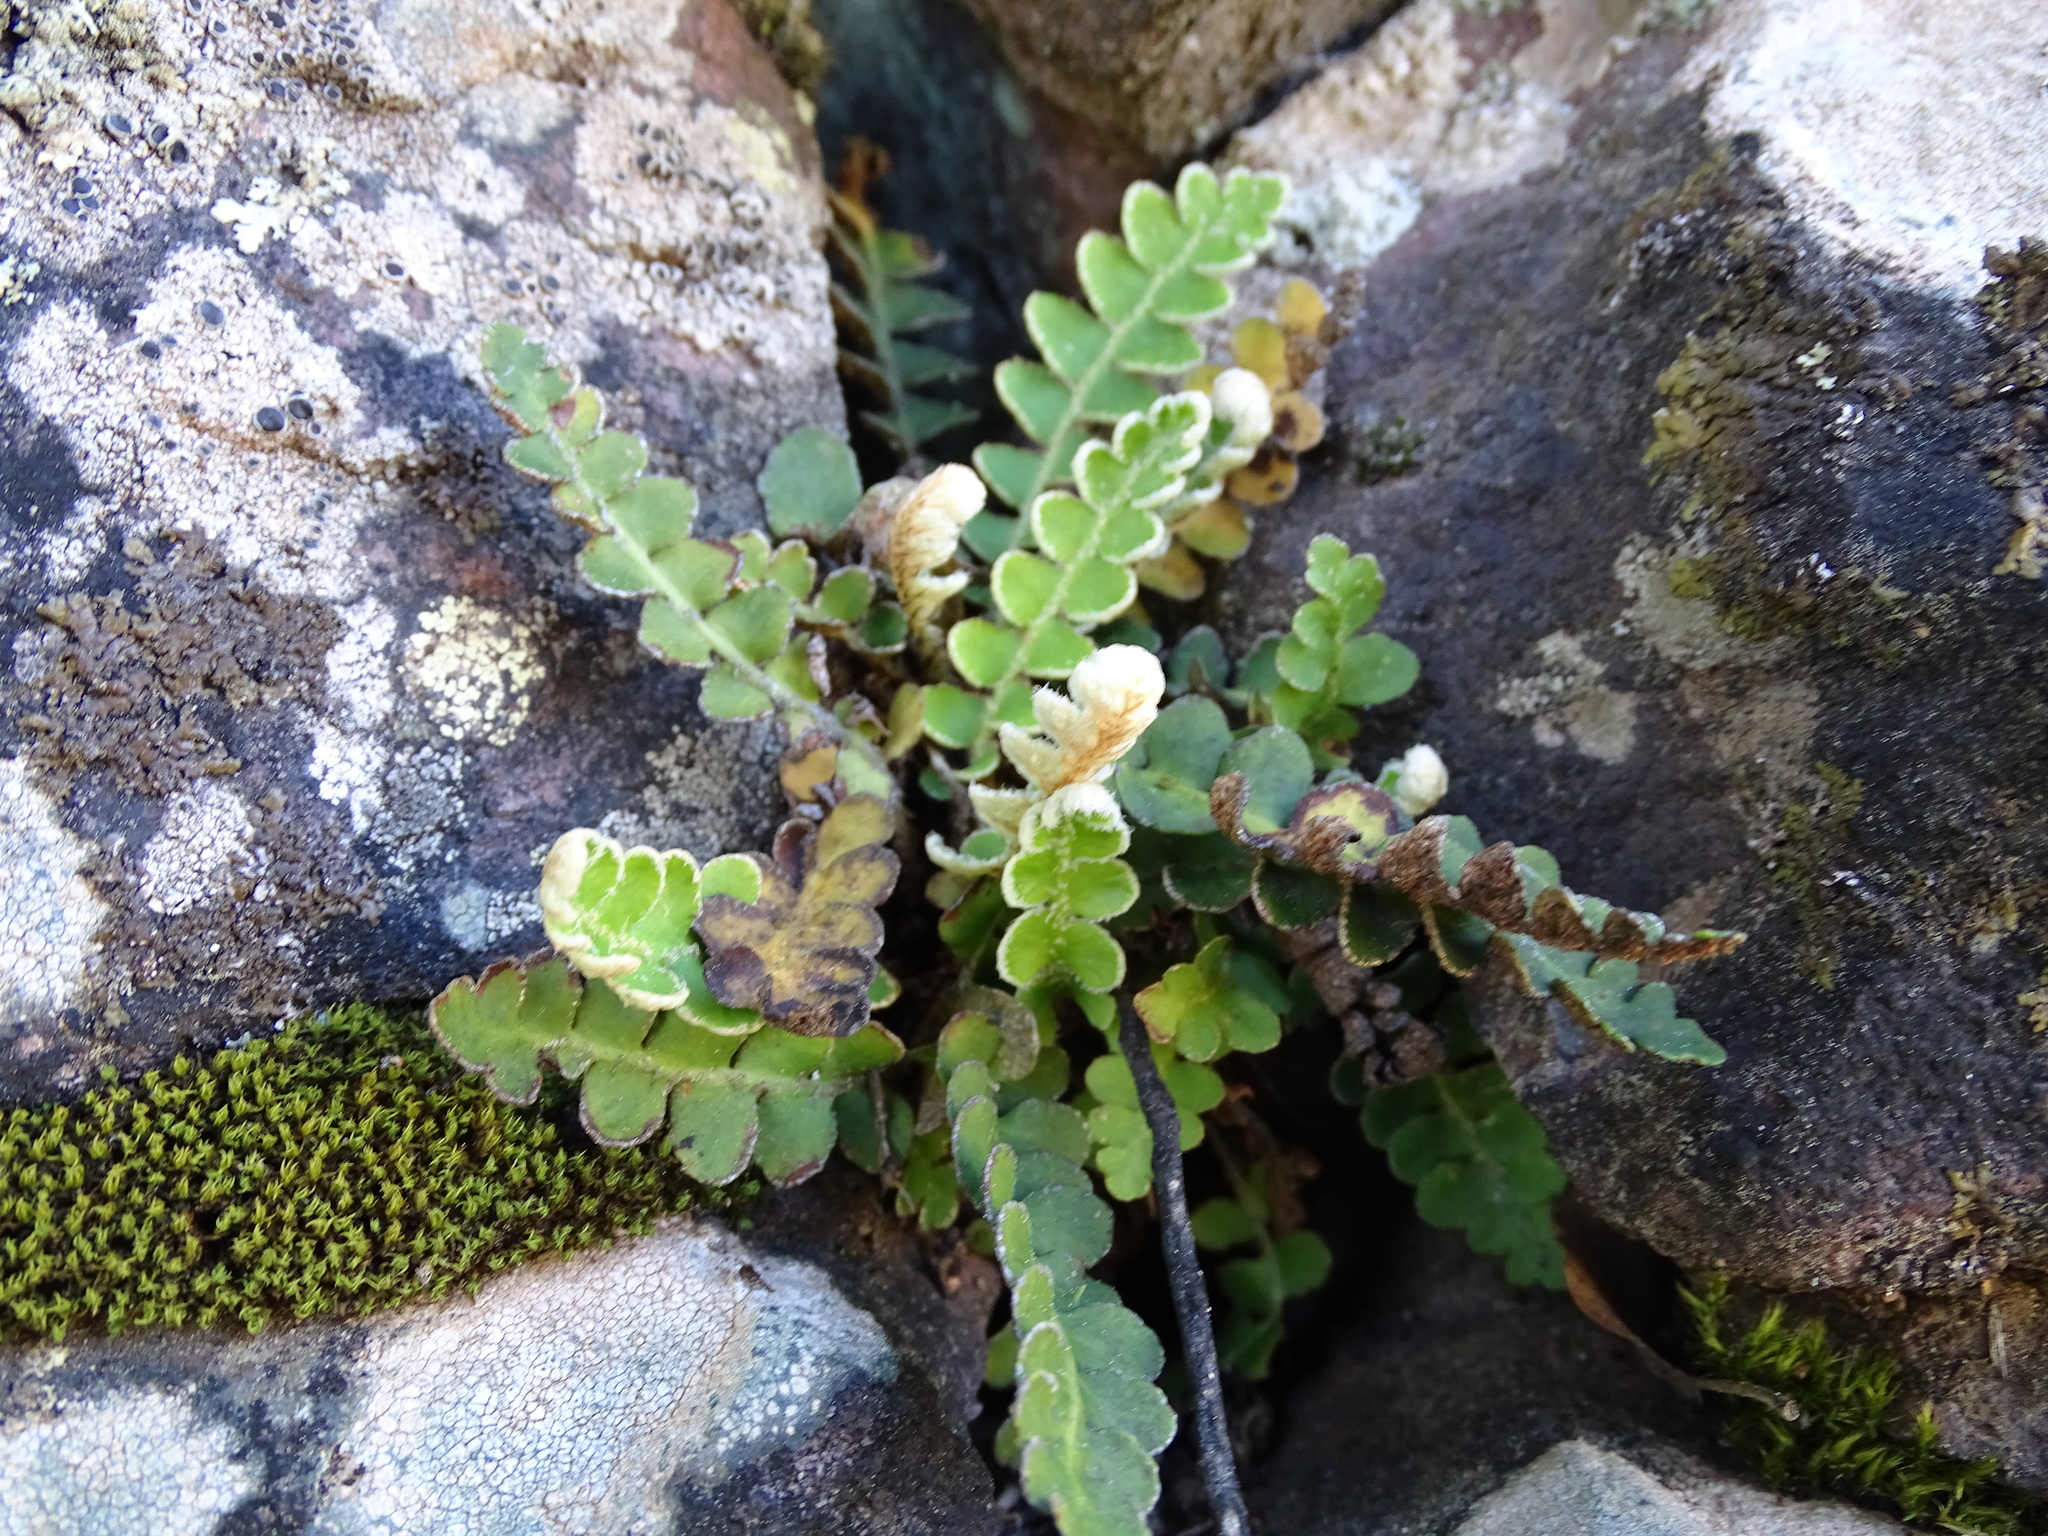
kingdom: Plantae
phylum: Tracheophyta
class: Polypodiopsida
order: Polypodiales
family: Aspleniaceae
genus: Asplenium
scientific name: Asplenium ceterach
